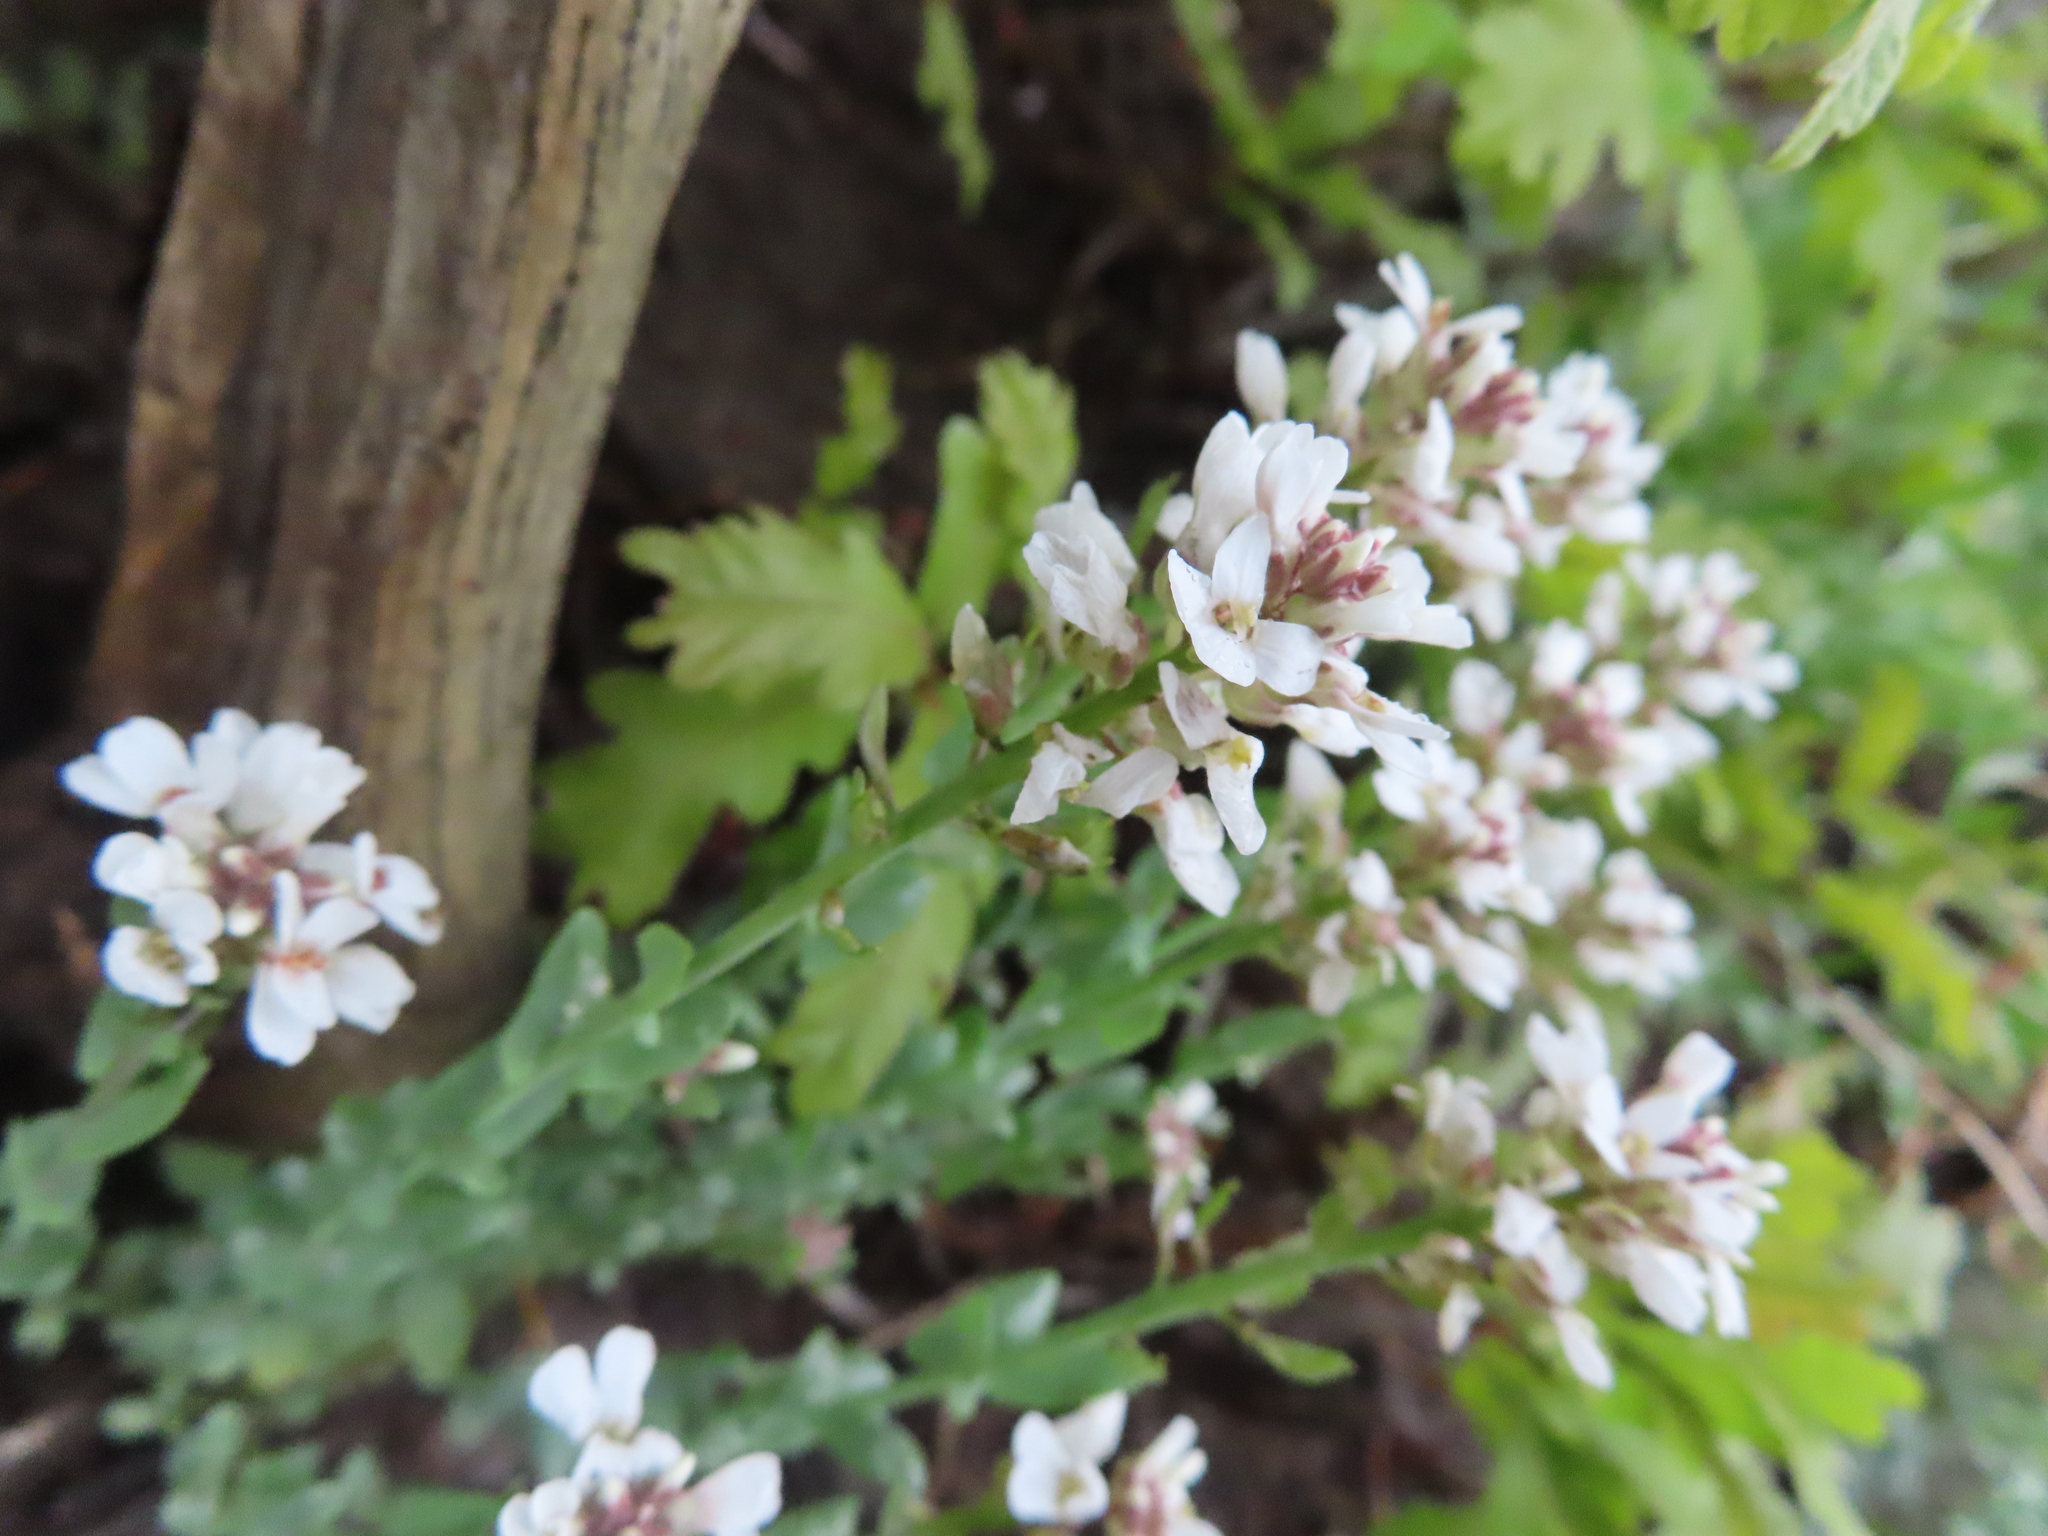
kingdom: Plantae
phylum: Tracheophyta
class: Magnoliopsida
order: Brassicales
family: Brassicaceae
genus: Noccaea
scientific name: Noccaea fendleri
